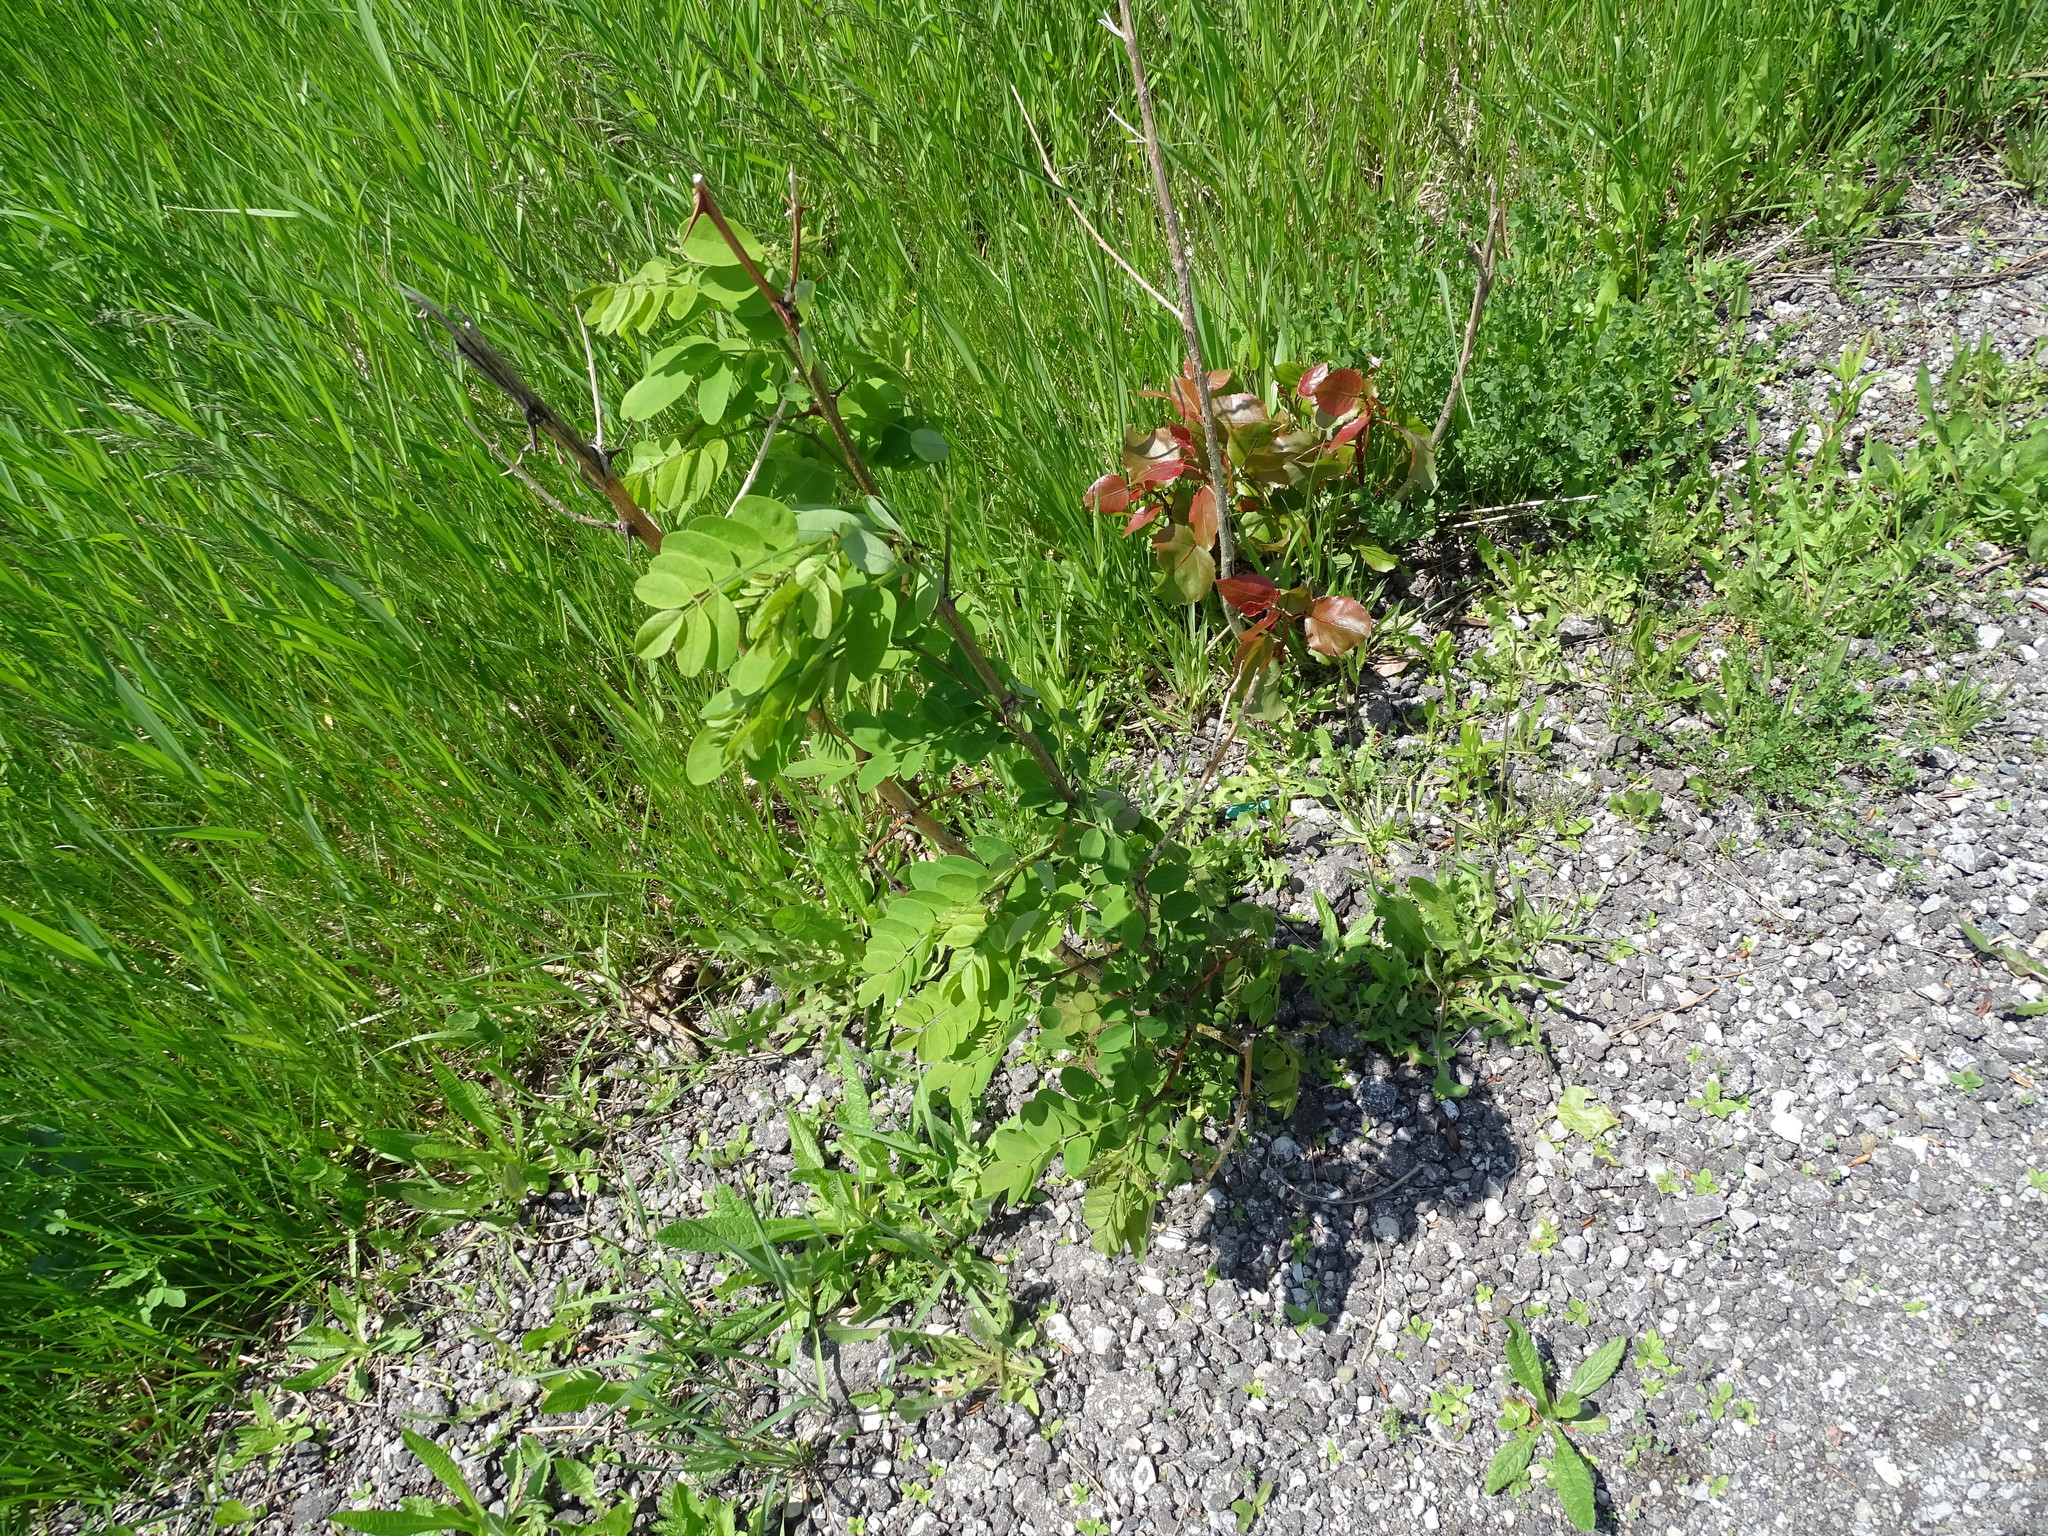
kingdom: Plantae
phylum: Tracheophyta
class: Magnoliopsida
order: Fabales
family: Fabaceae
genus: Robinia
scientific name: Robinia pseudoacacia
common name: Black locust
